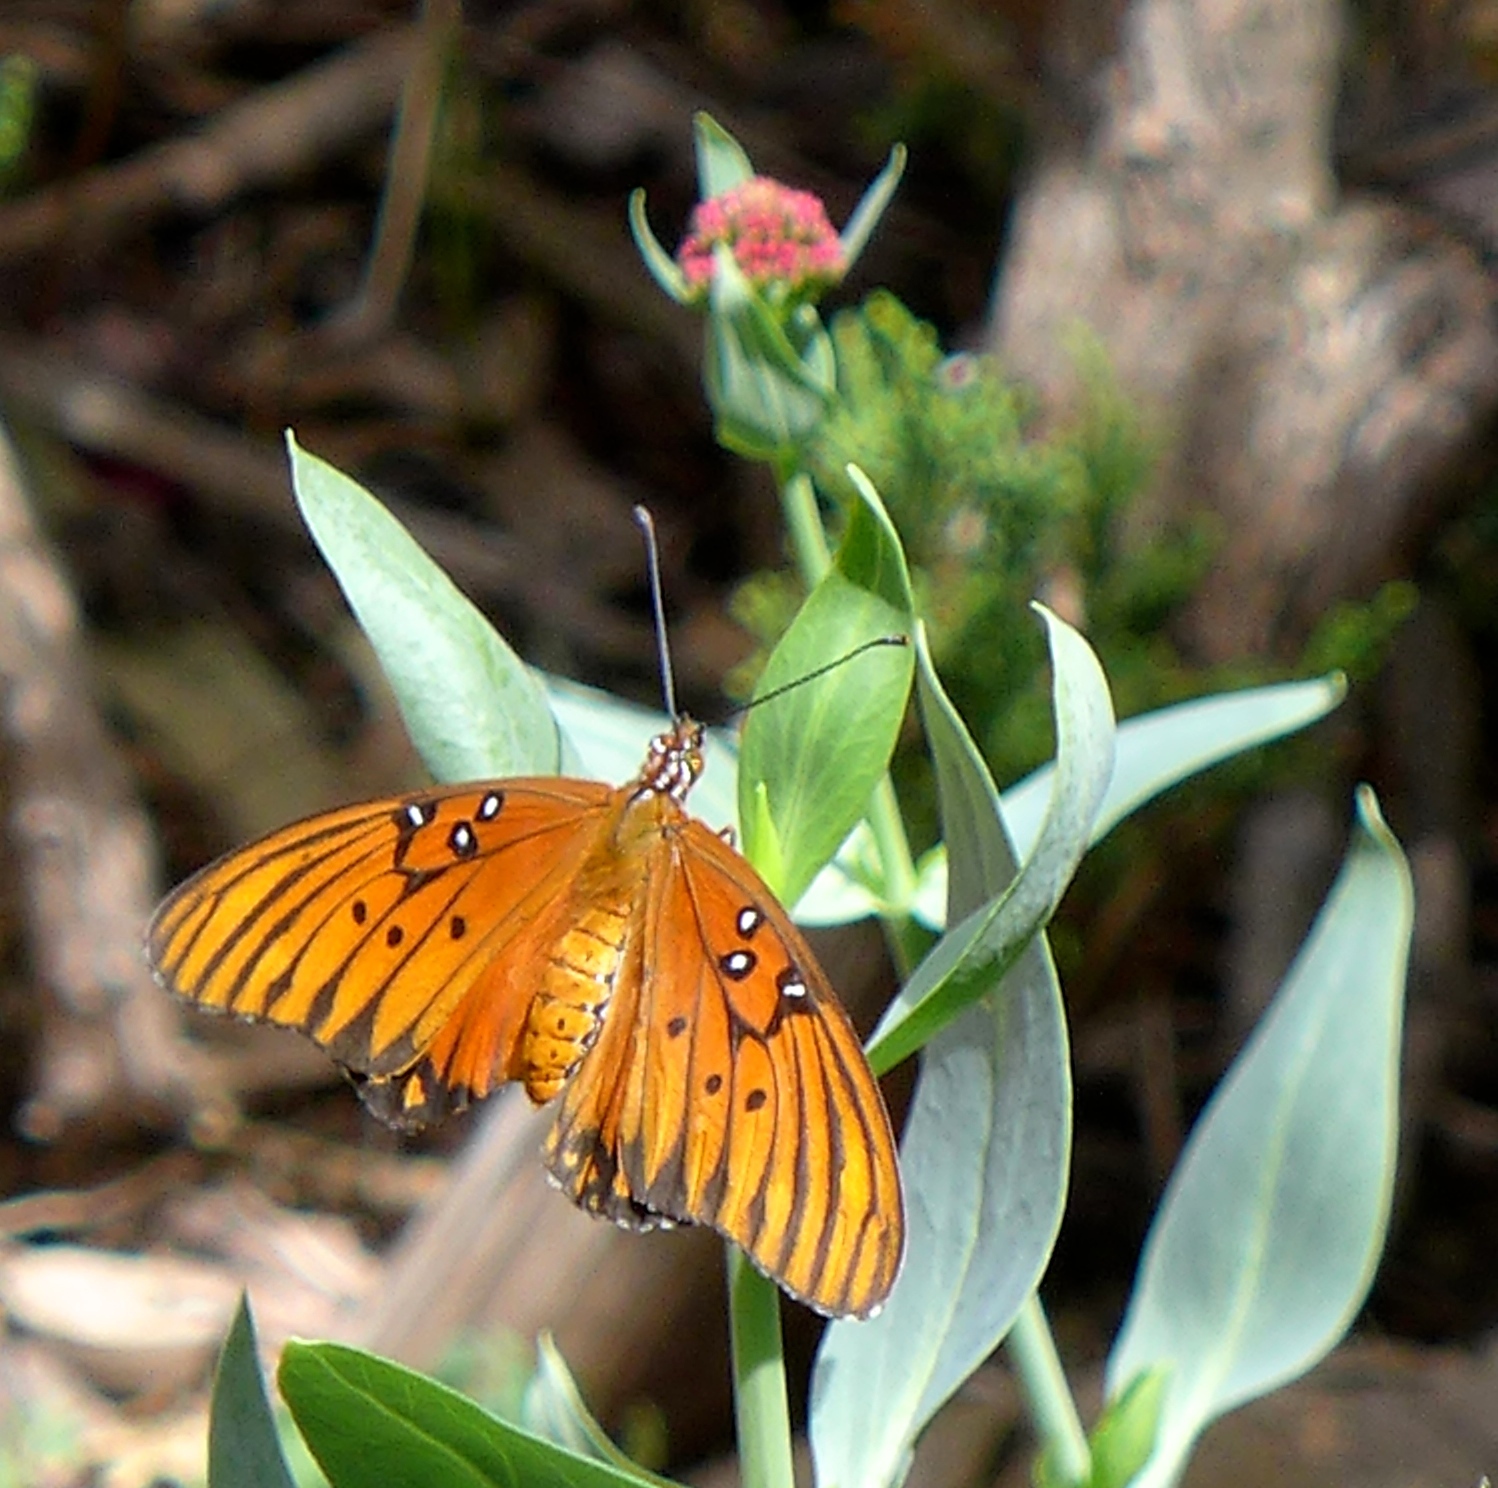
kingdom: Animalia
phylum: Arthropoda
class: Insecta
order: Lepidoptera
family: Nymphalidae
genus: Dione
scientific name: Dione vanillae
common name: Gulf fritillary
